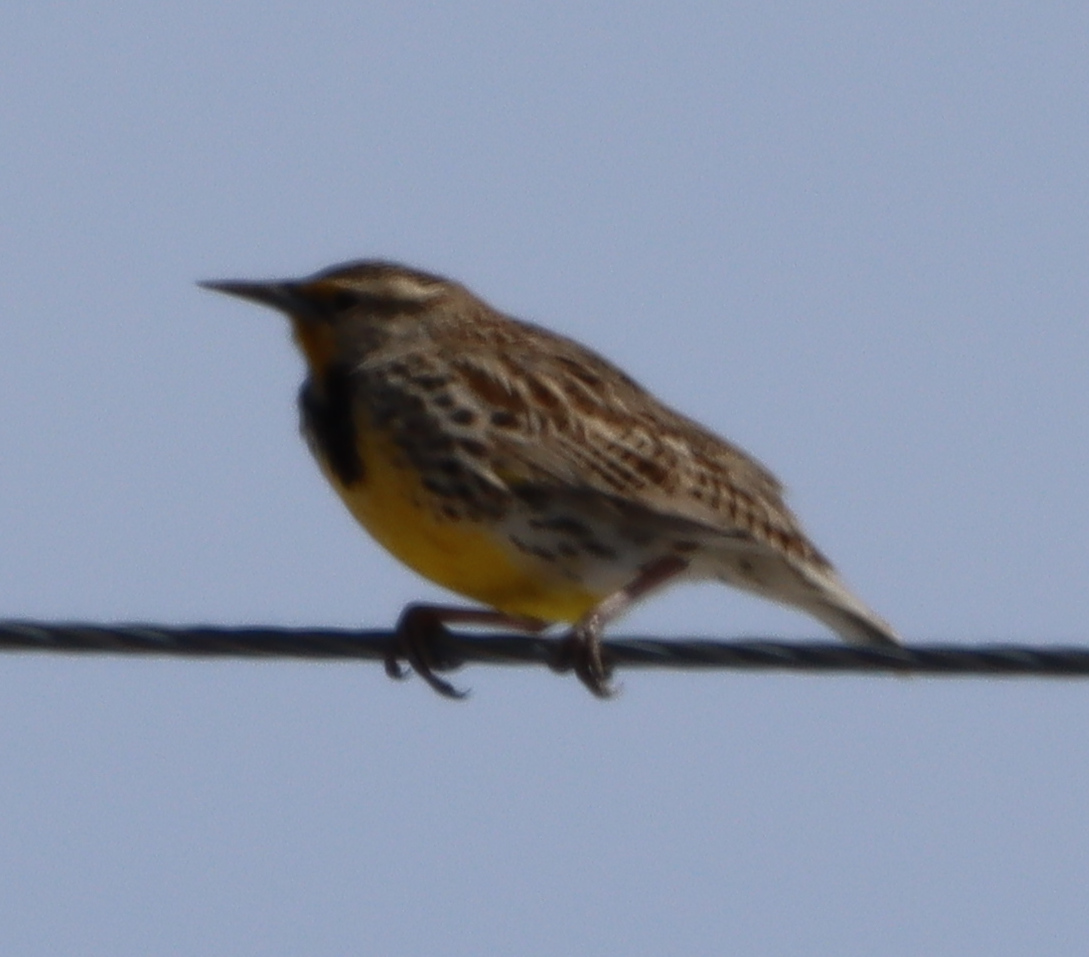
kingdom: Animalia
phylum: Chordata
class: Aves
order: Passeriformes
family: Icteridae
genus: Sturnella
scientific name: Sturnella neglecta
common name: Western meadowlark
